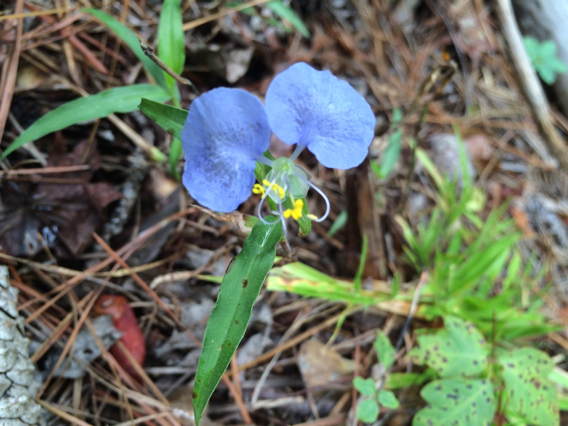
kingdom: Plantae
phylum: Tracheophyta
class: Liliopsida
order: Commelinales
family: Commelinaceae
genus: Commelina
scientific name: Commelina erecta
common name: Blousel blommetjie
